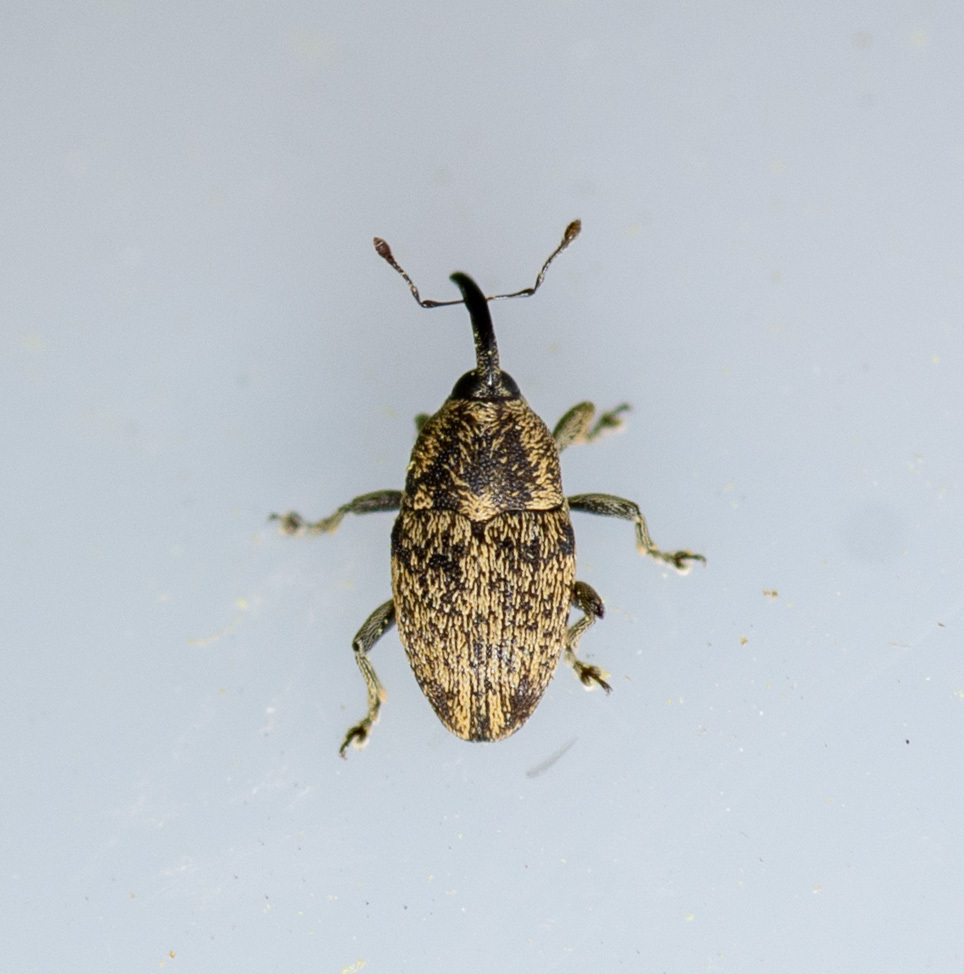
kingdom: Animalia
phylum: Arthropoda
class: Insecta
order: Coleoptera
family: Curculionidae
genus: Linogeraeus
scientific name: Linogeraeus neglectus
